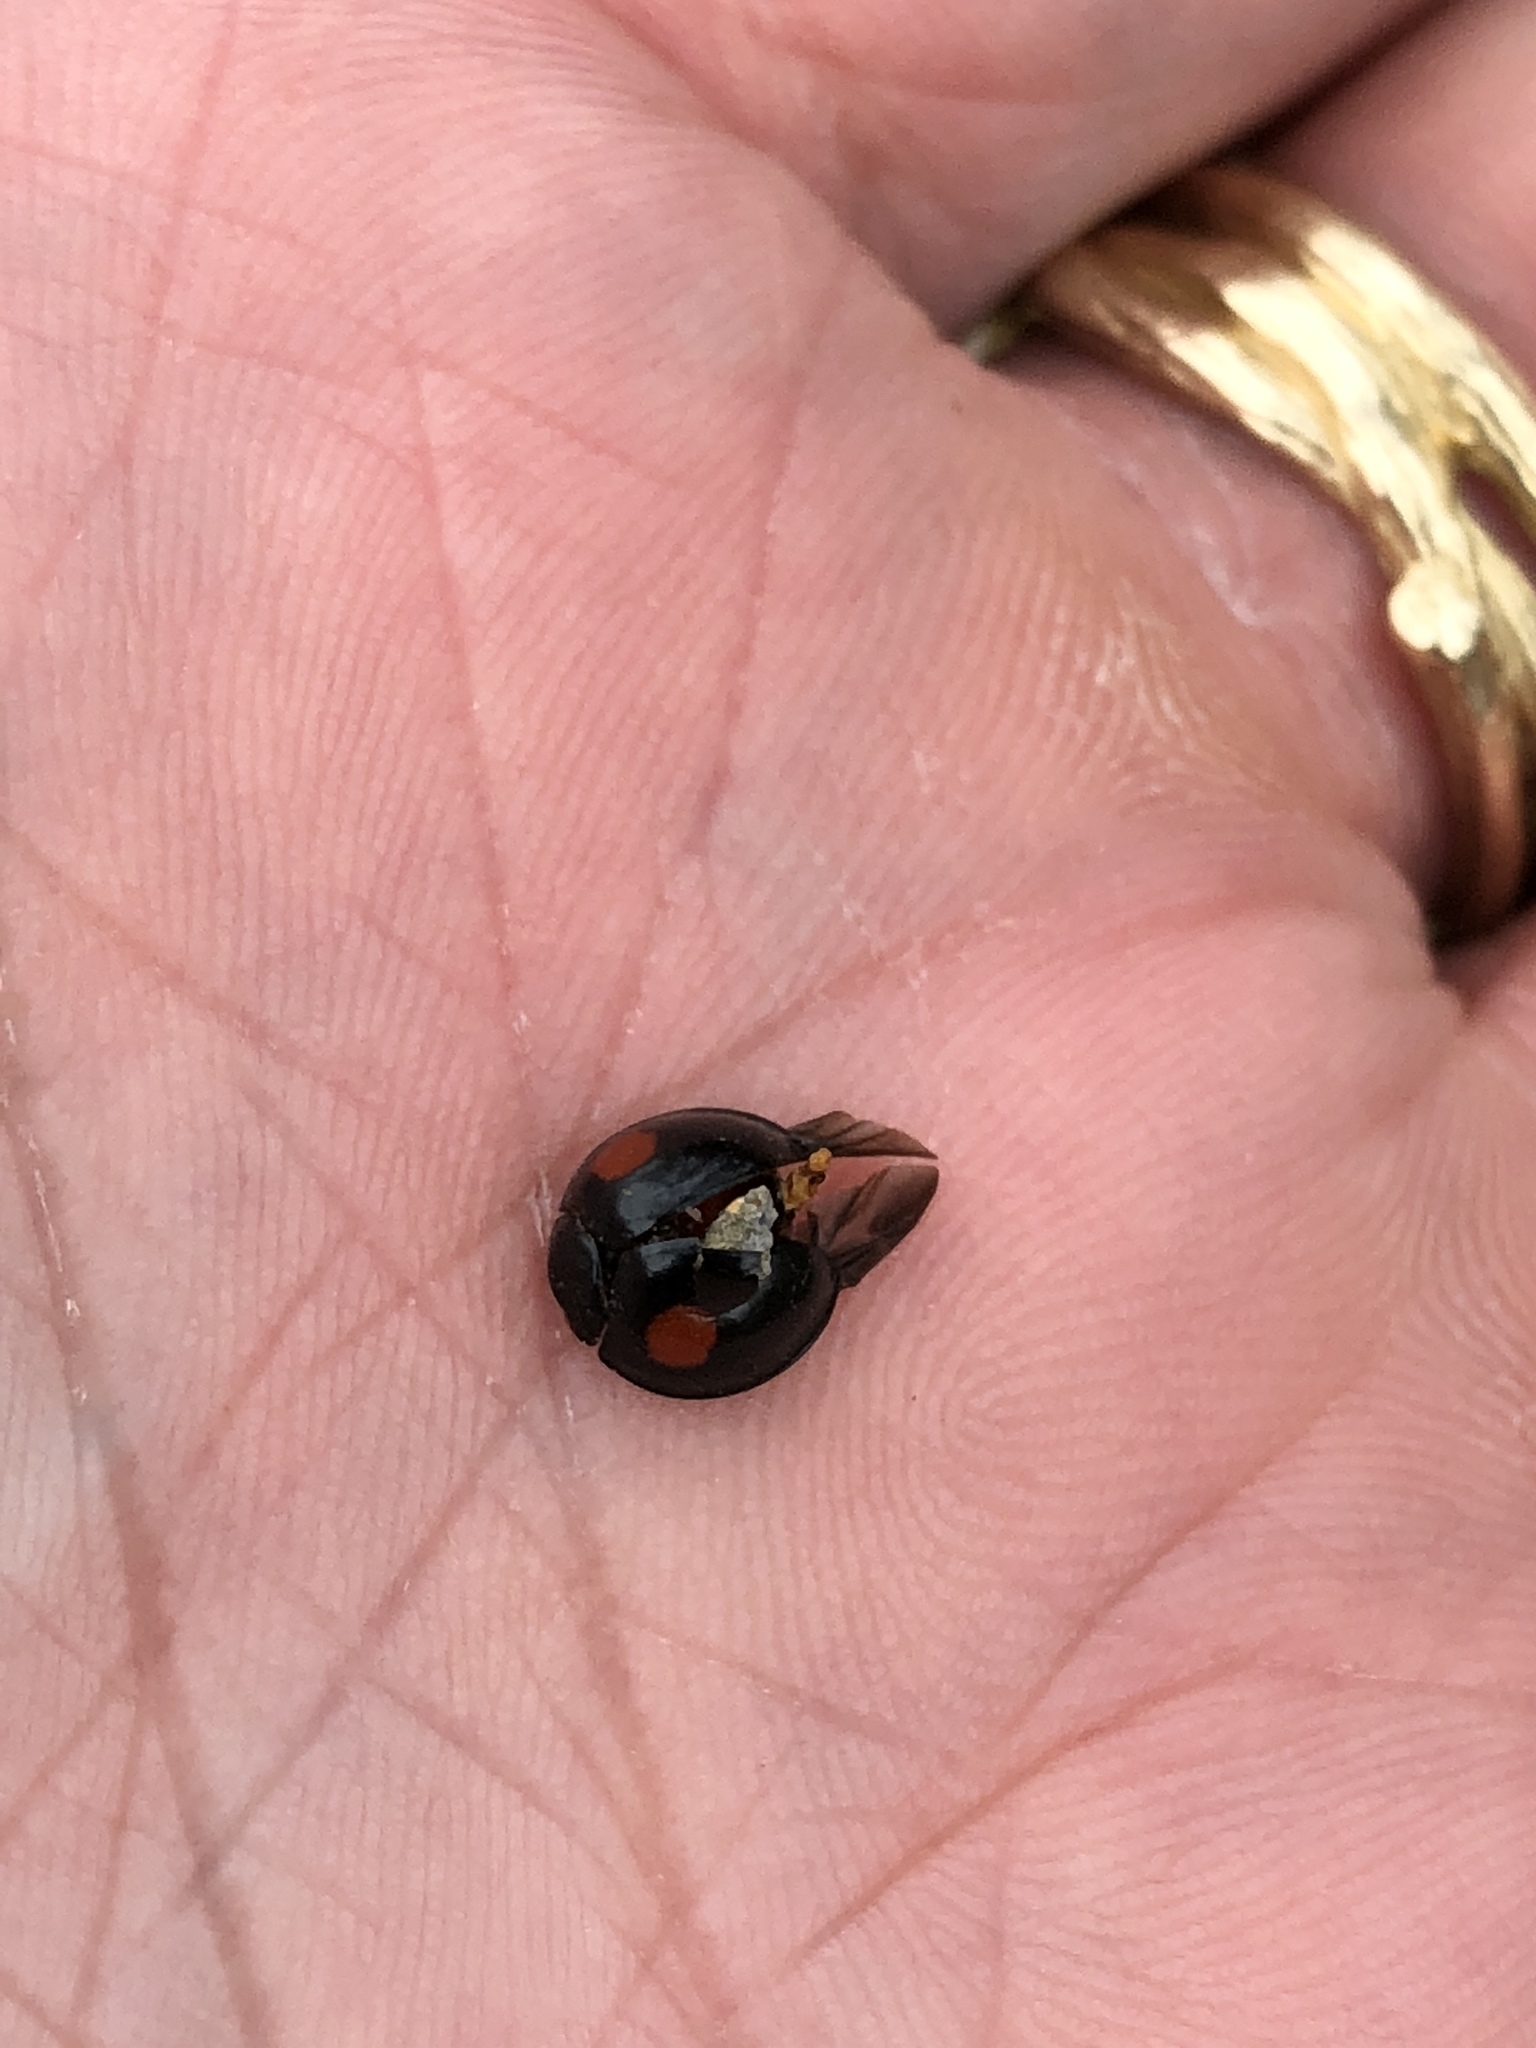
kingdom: Animalia
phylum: Arthropoda
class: Insecta
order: Coleoptera
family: Coccinellidae
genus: Axion
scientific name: Axion plagiatum
